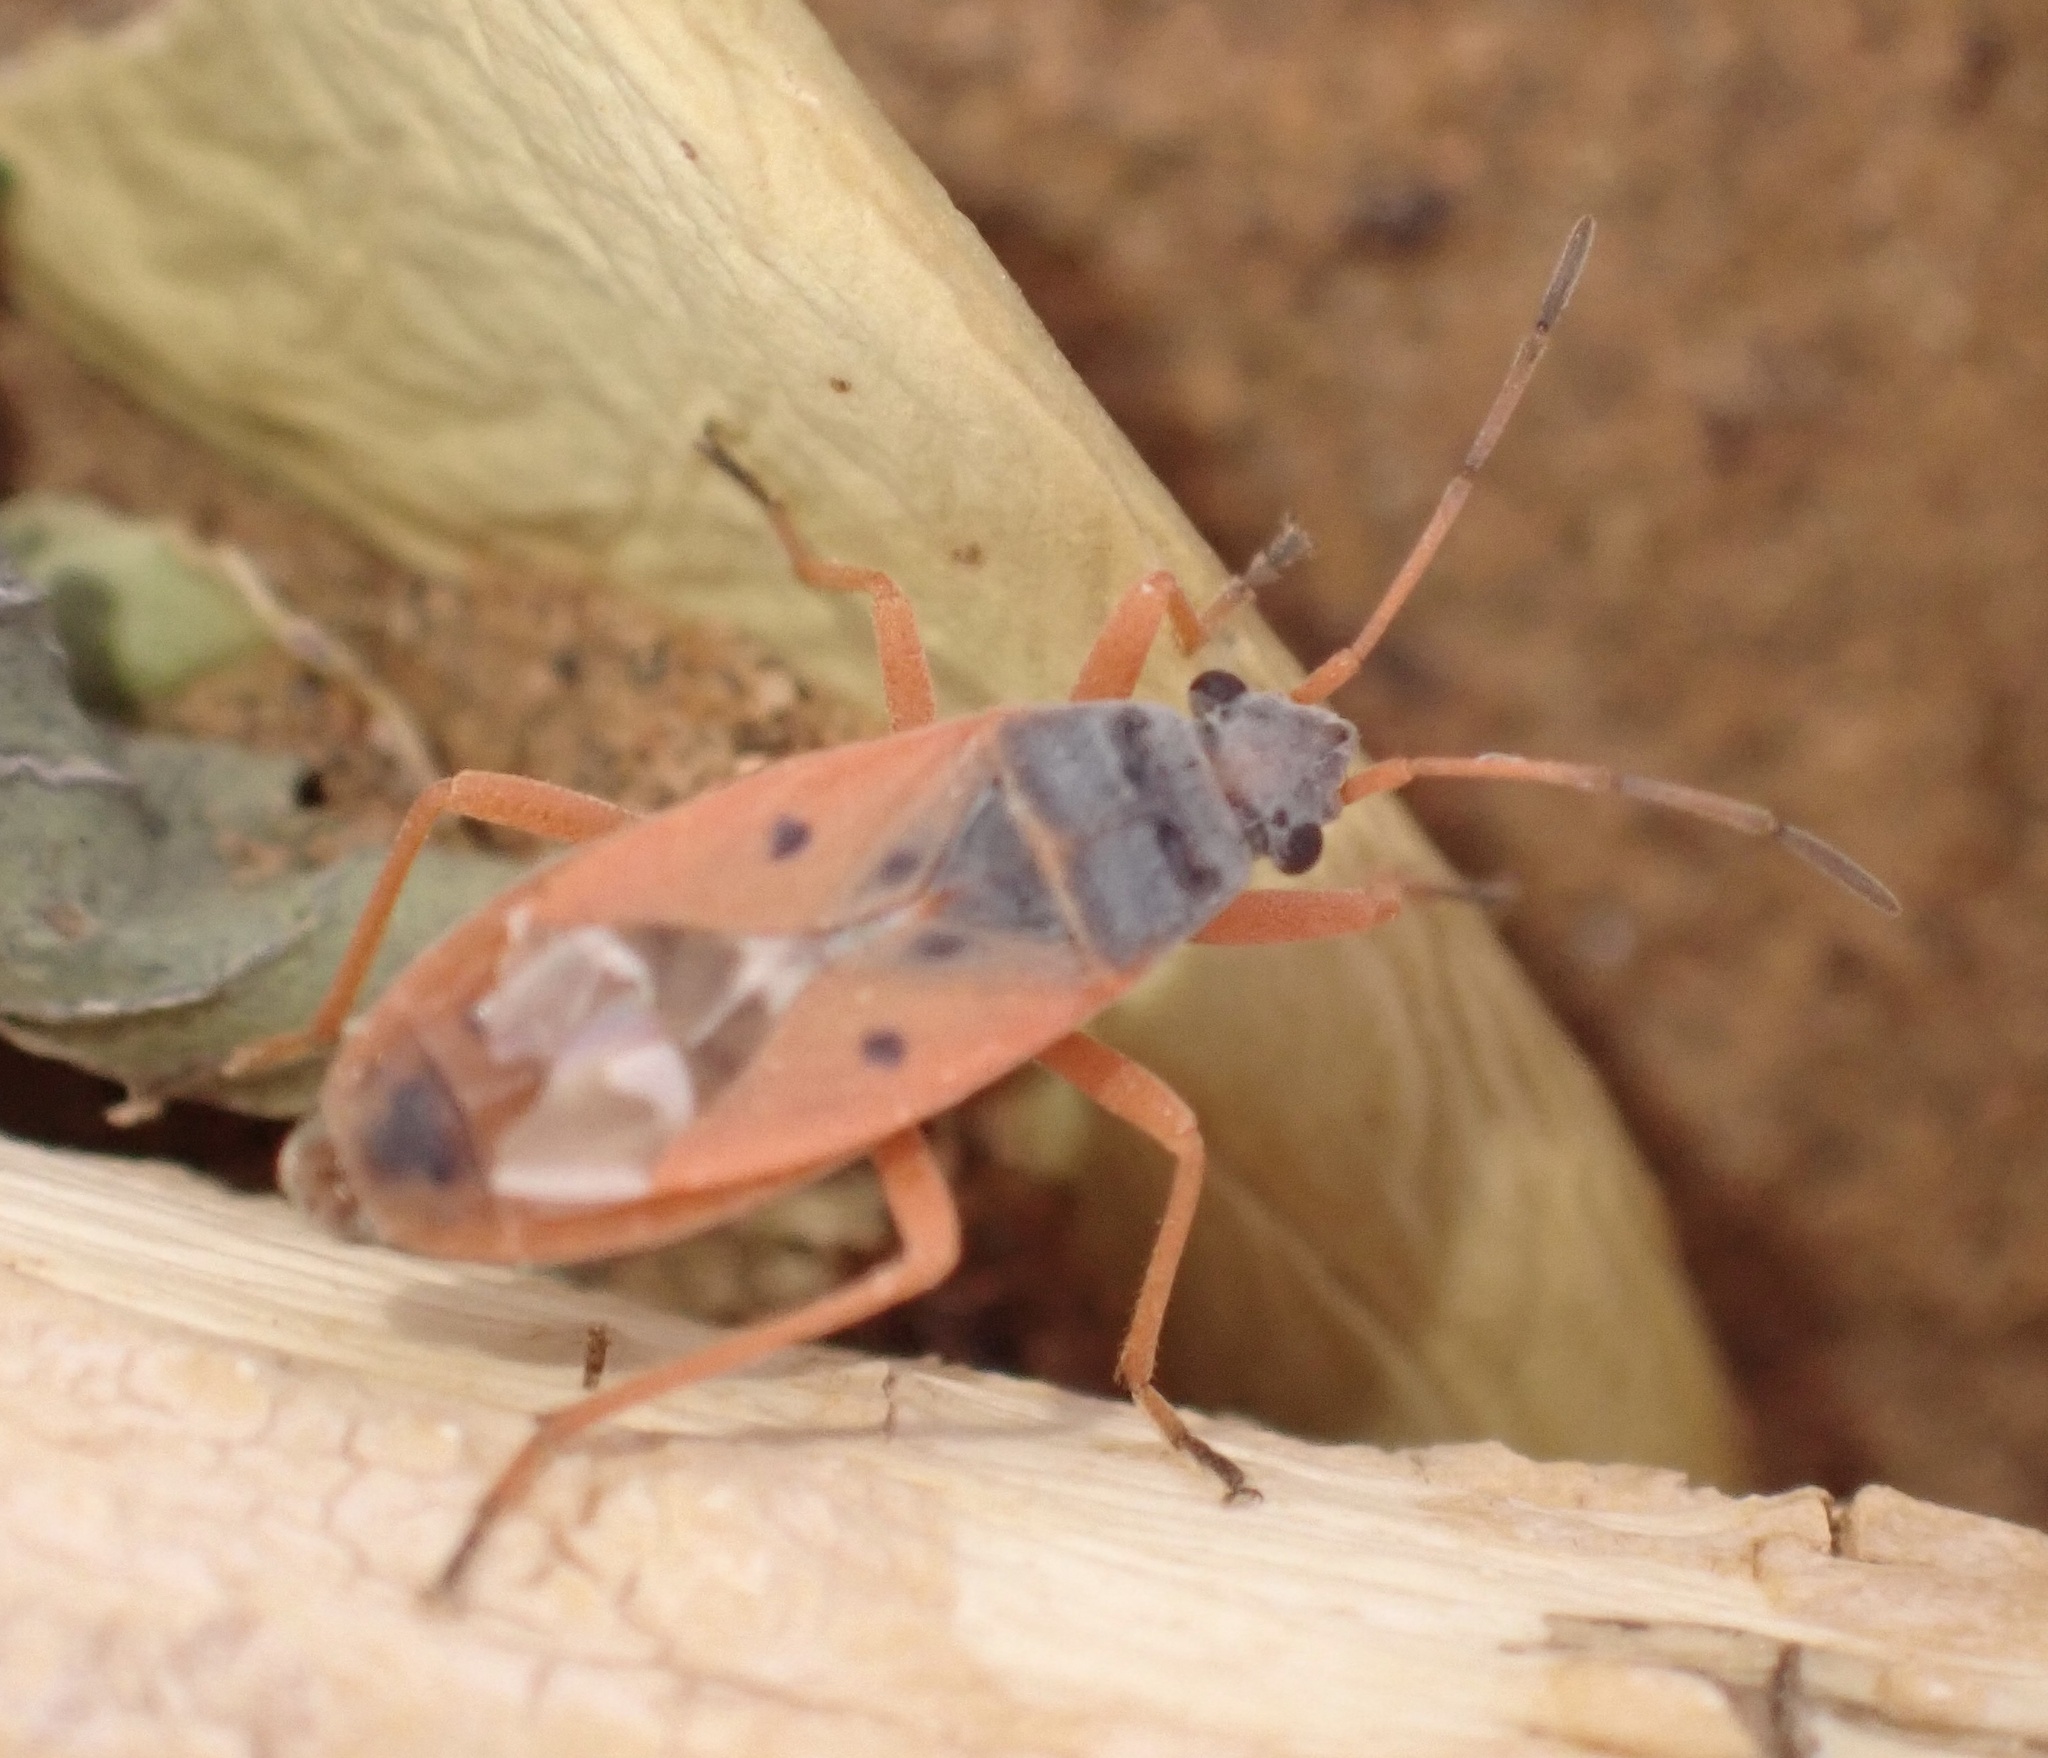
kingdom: Animalia
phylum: Arthropoda
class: Insecta
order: Hemiptera
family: Lygaeidae
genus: Cosmopleurus
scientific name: Cosmopleurus fulvipes
